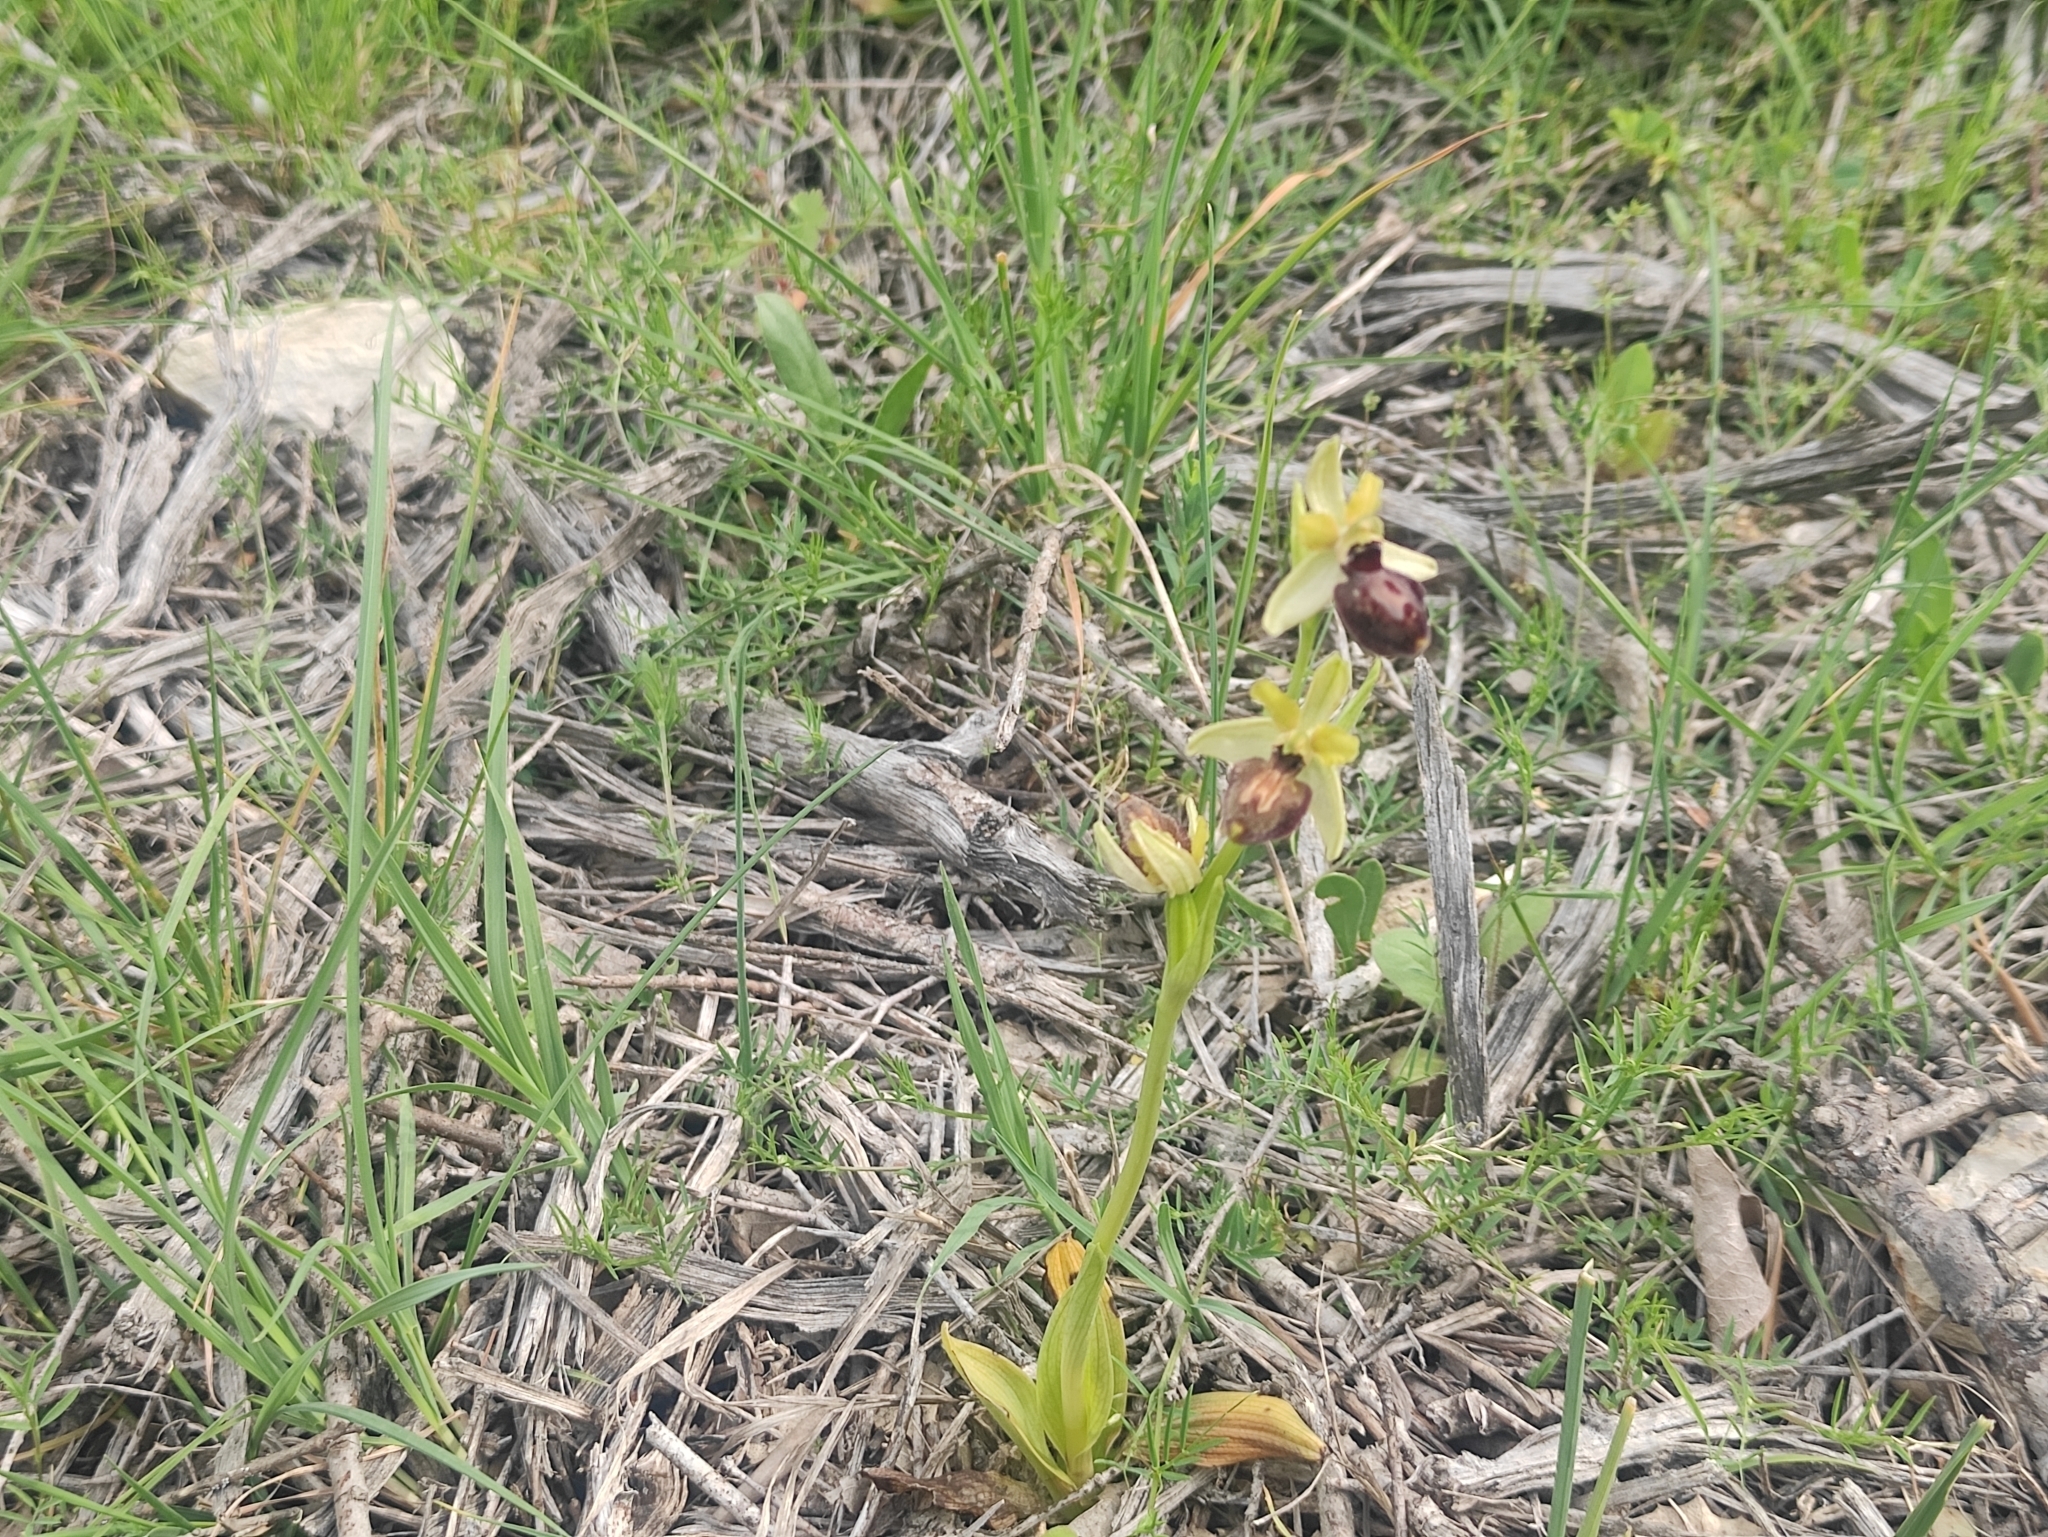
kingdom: Plantae
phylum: Tracheophyta
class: Liliopsida
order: Asparagales
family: Orchidaceae
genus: Ophrys
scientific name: Ophrys sphegodes
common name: Early spider-orchid
